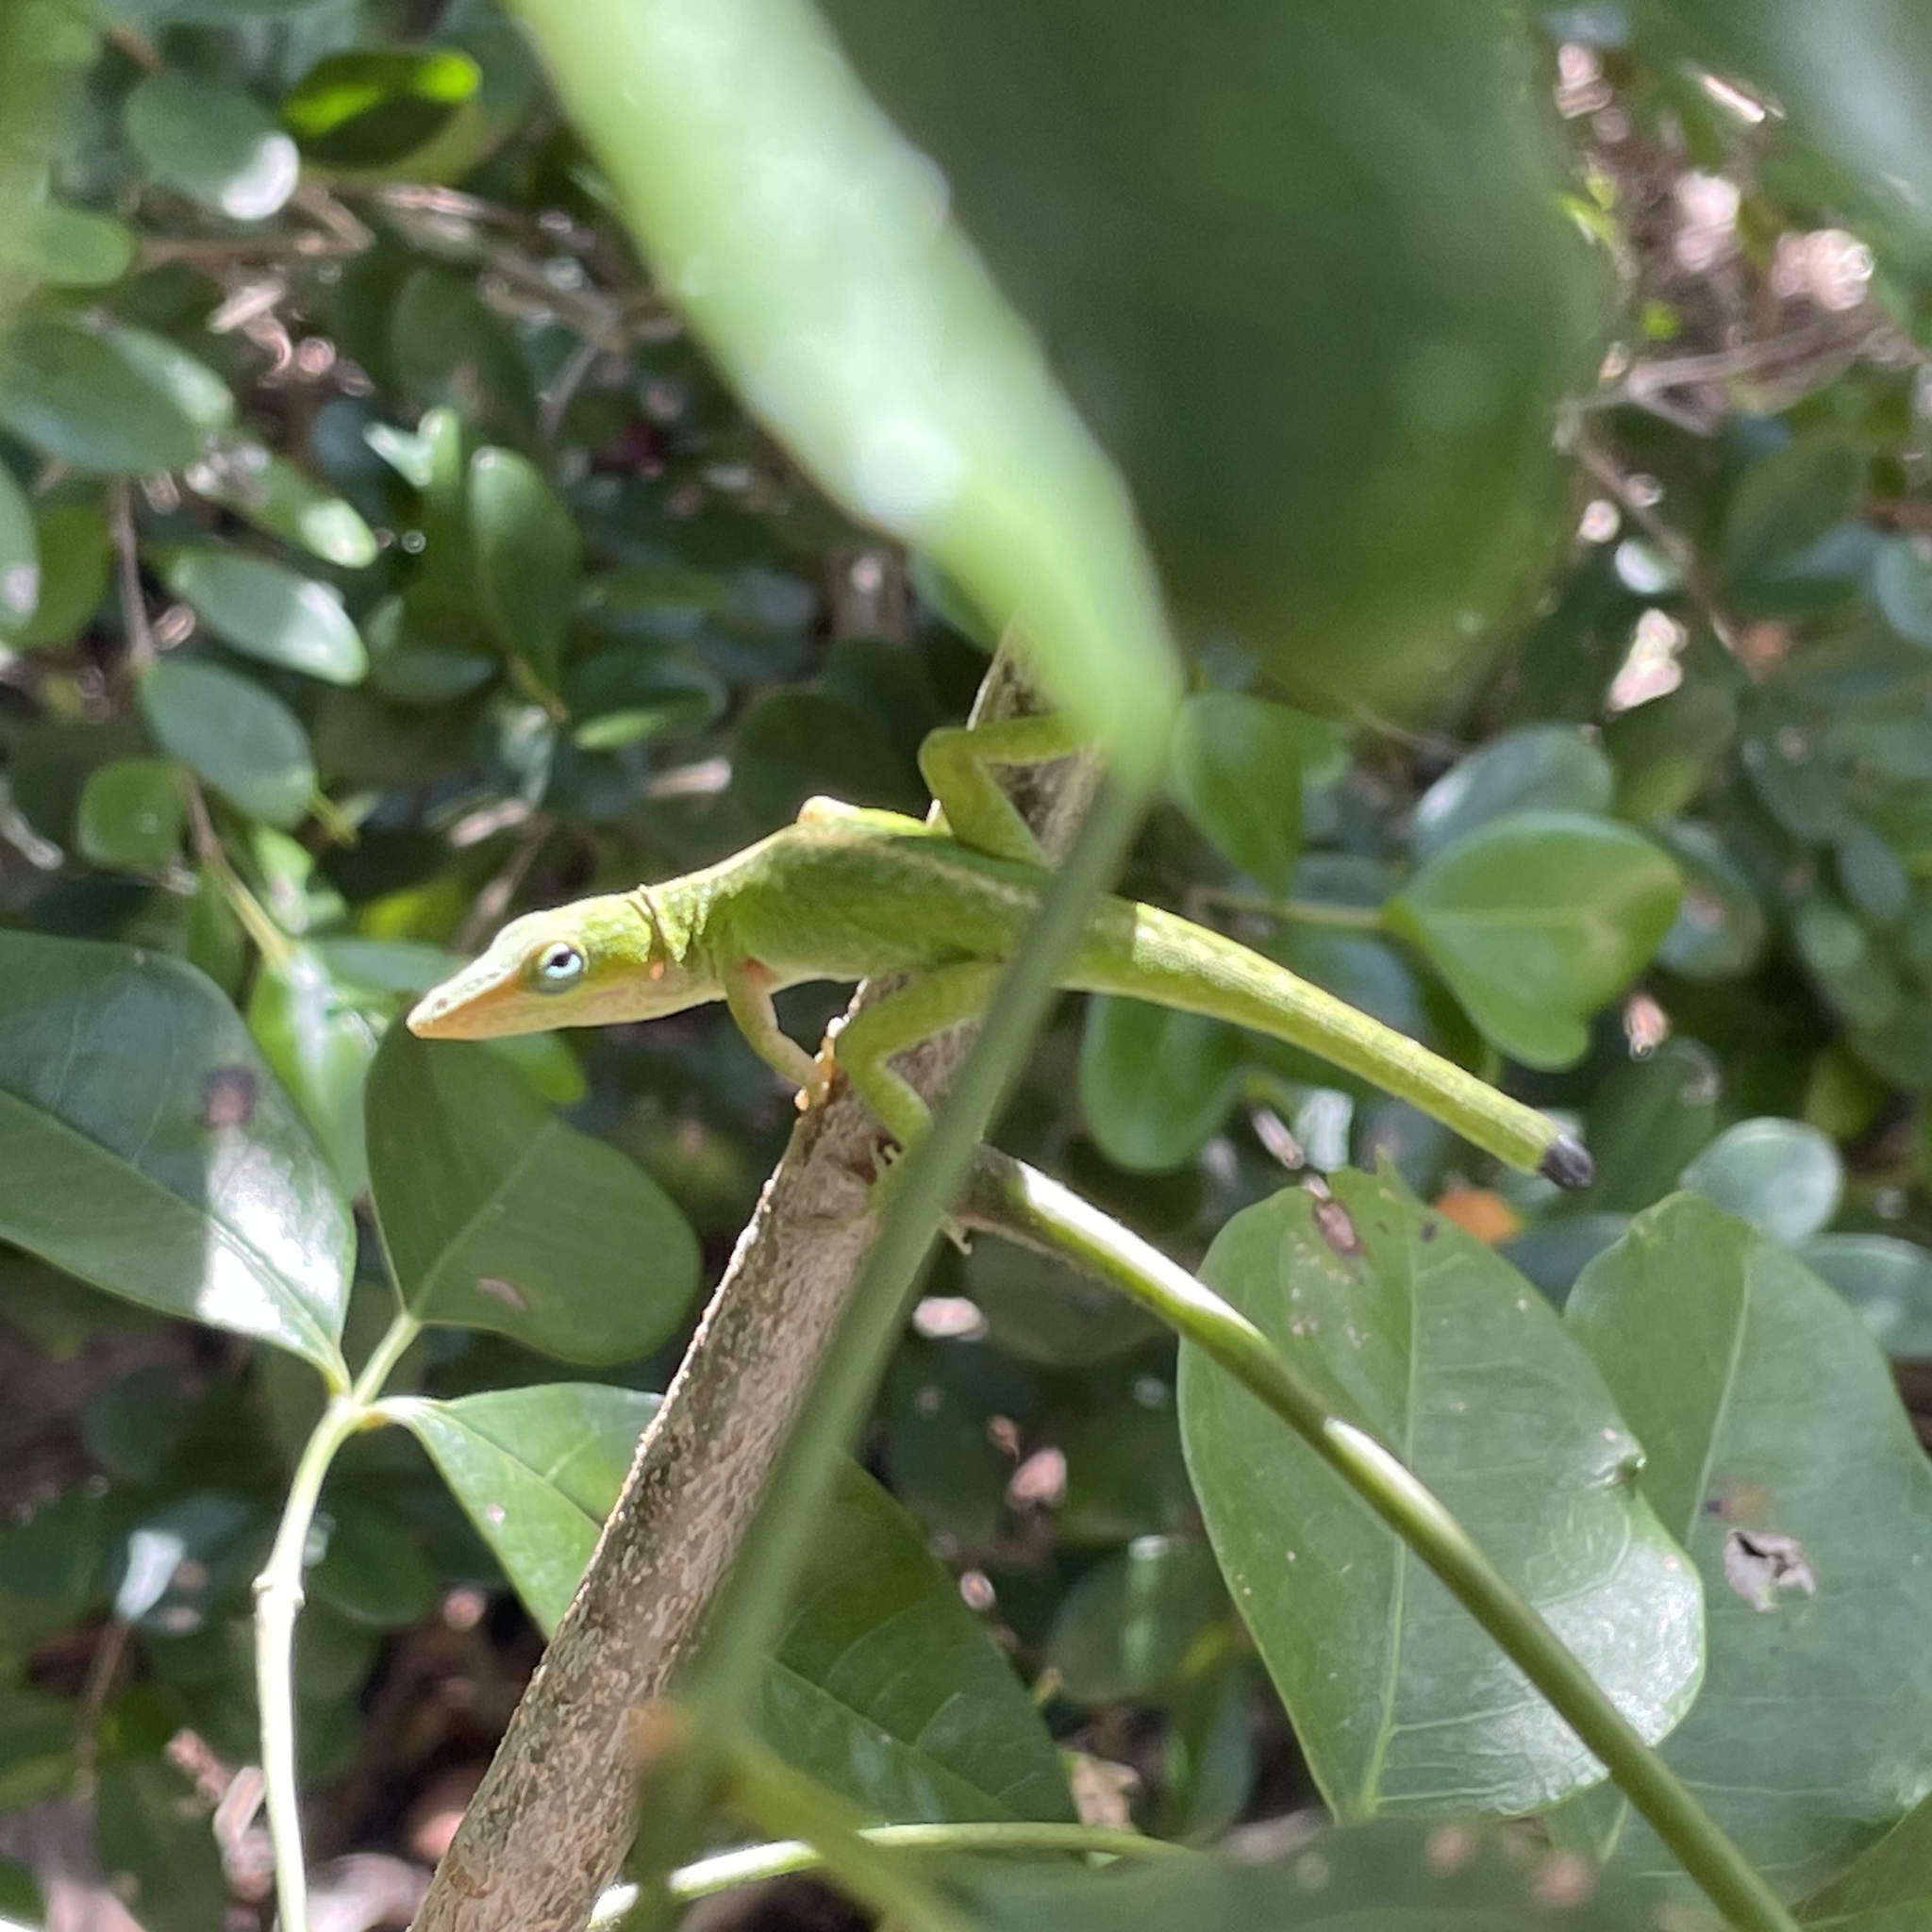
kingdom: Animalia
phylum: Chordata
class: Squamata
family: Dactyloidae
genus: Anolis
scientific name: Anolis carolinensis
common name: Green anole
